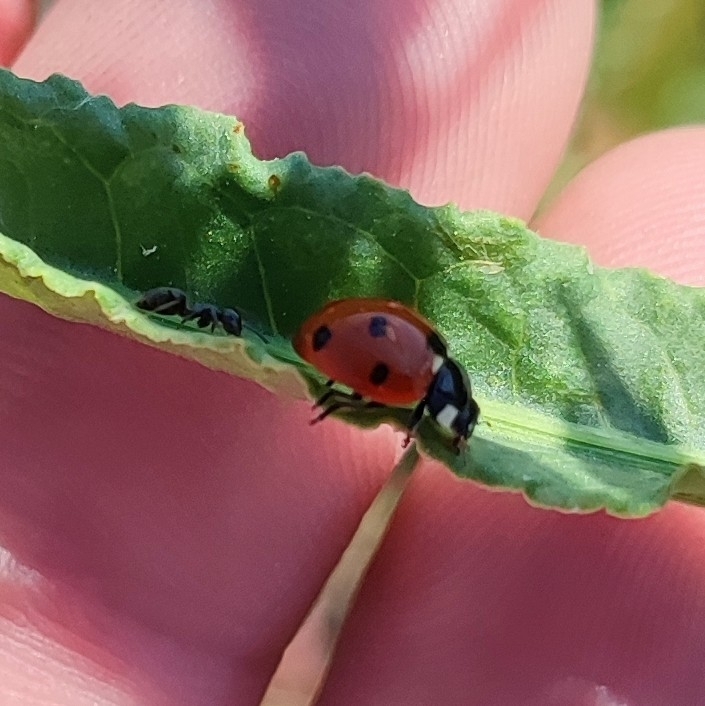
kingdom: Animalia
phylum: Arthropoda
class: Insecta
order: Coleoptera
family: Coccinellidae
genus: Coccinella
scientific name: Coccinella septempunctata
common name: Sevenspotted lady beetle
